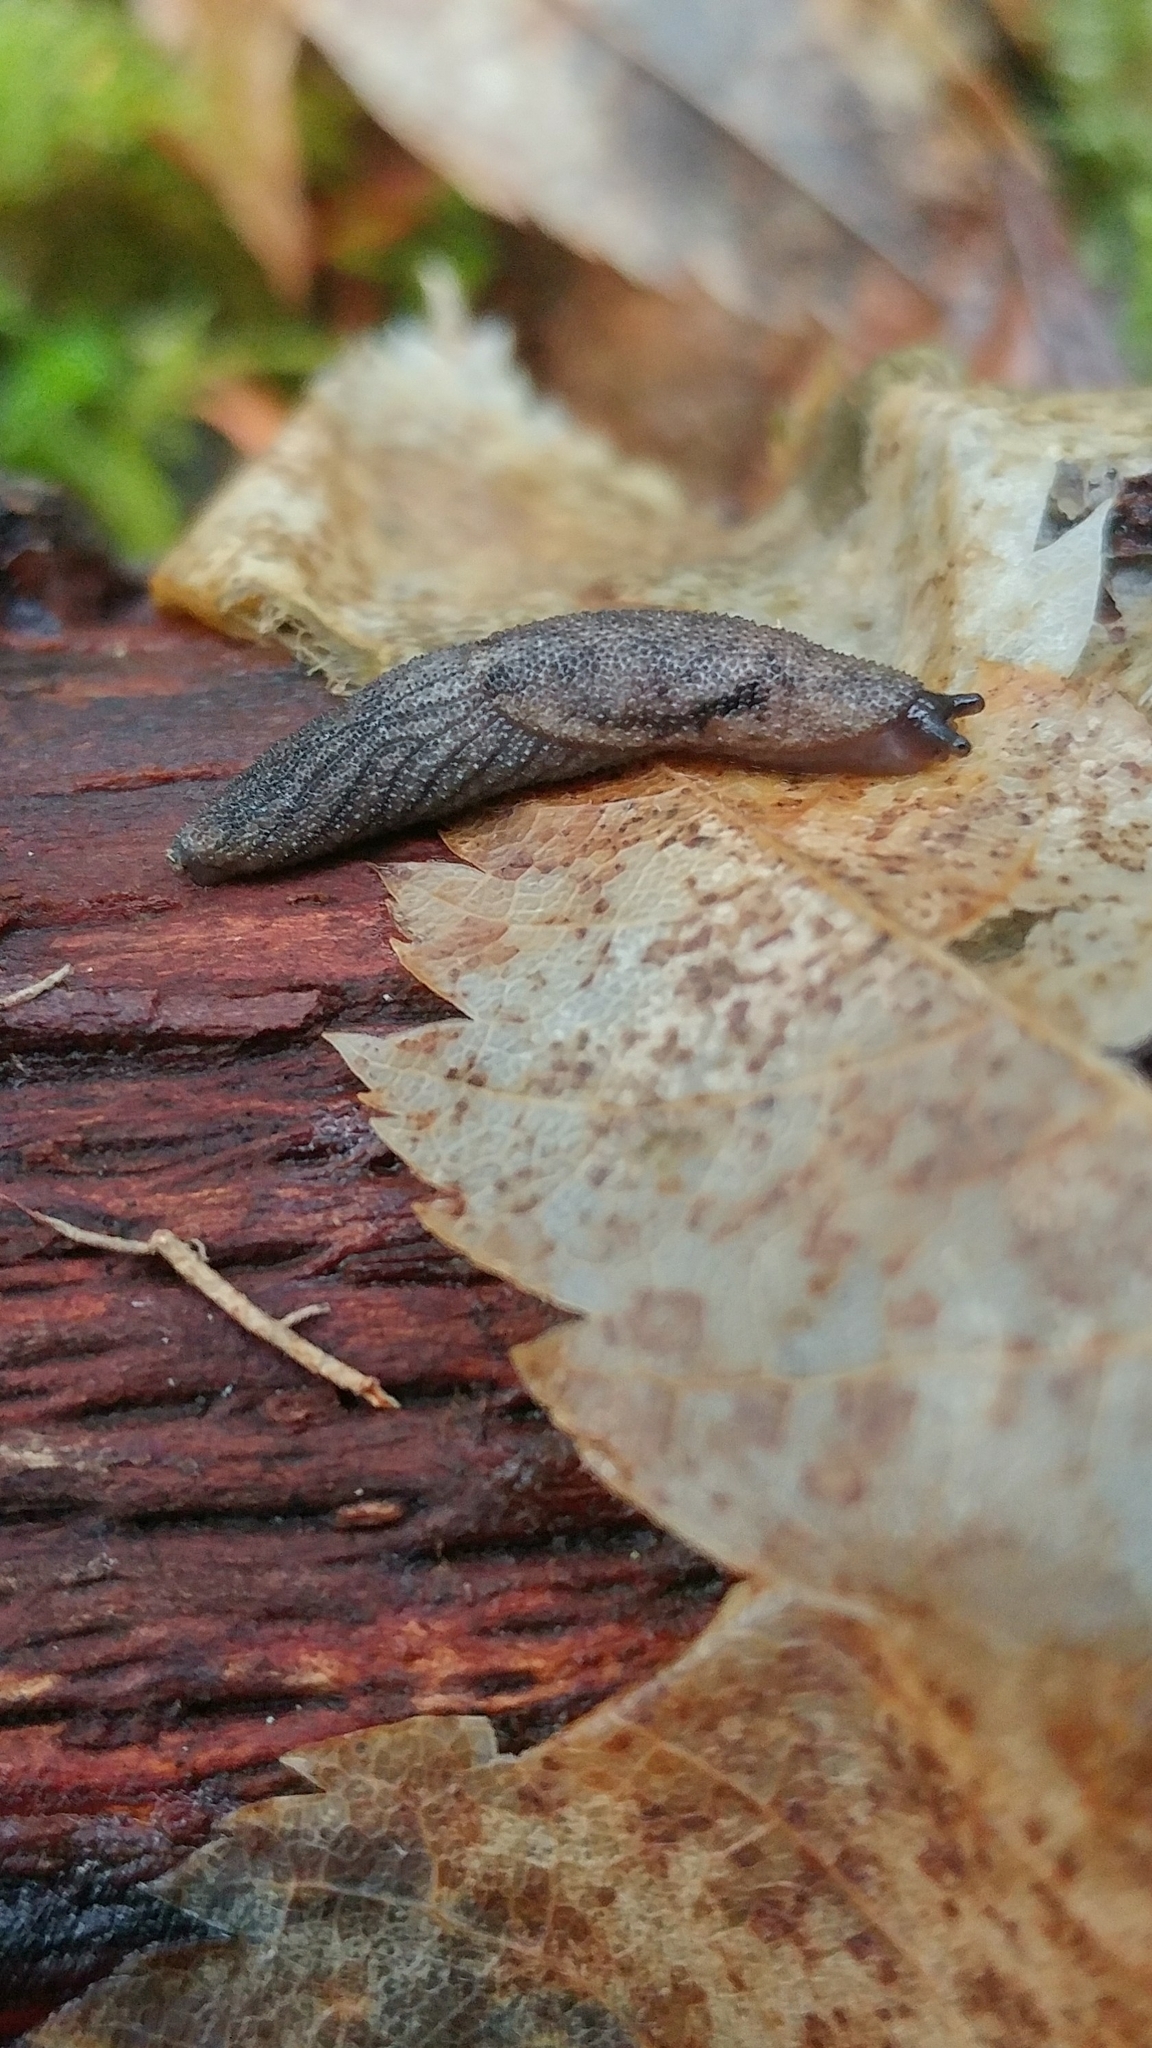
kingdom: Animalia
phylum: Mollusca
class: Gastropoda
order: Stylommatophora
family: Ariolimacidae
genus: Prophysaon
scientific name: Prophysaon dubium
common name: Papillose taildropper
